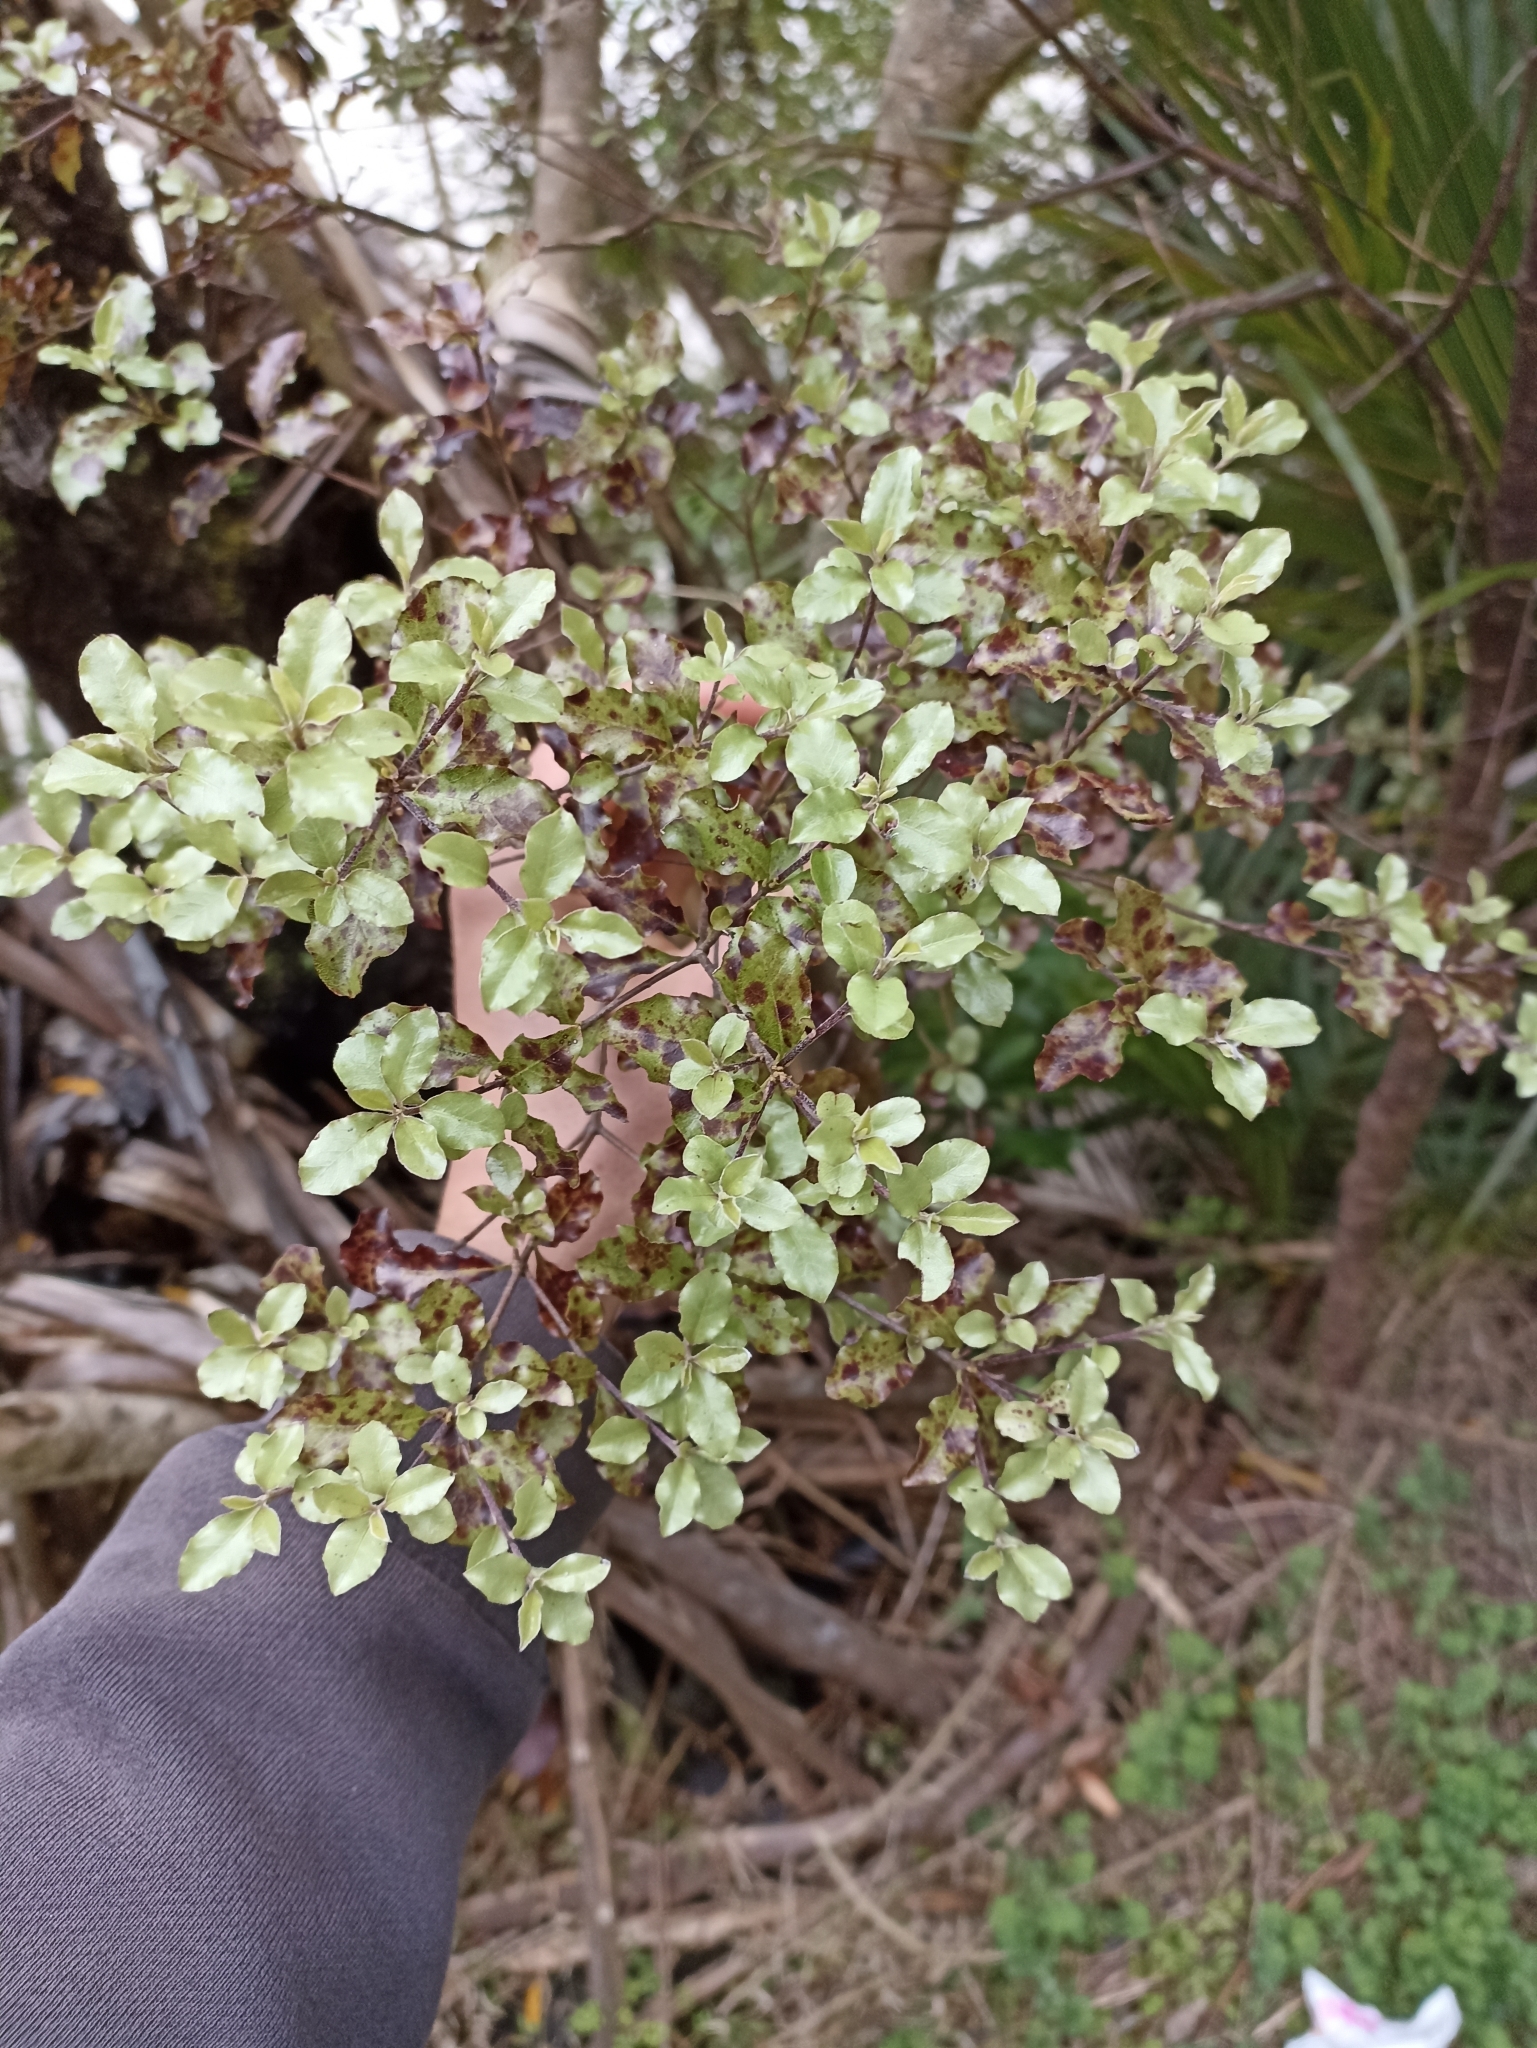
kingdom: Plantae
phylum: Tracheophyta
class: Magnoliopsida
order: Apiales
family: Pittosporaceae
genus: Pittosporum
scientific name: Pittosporum tenuifolium
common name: Kohuhu
